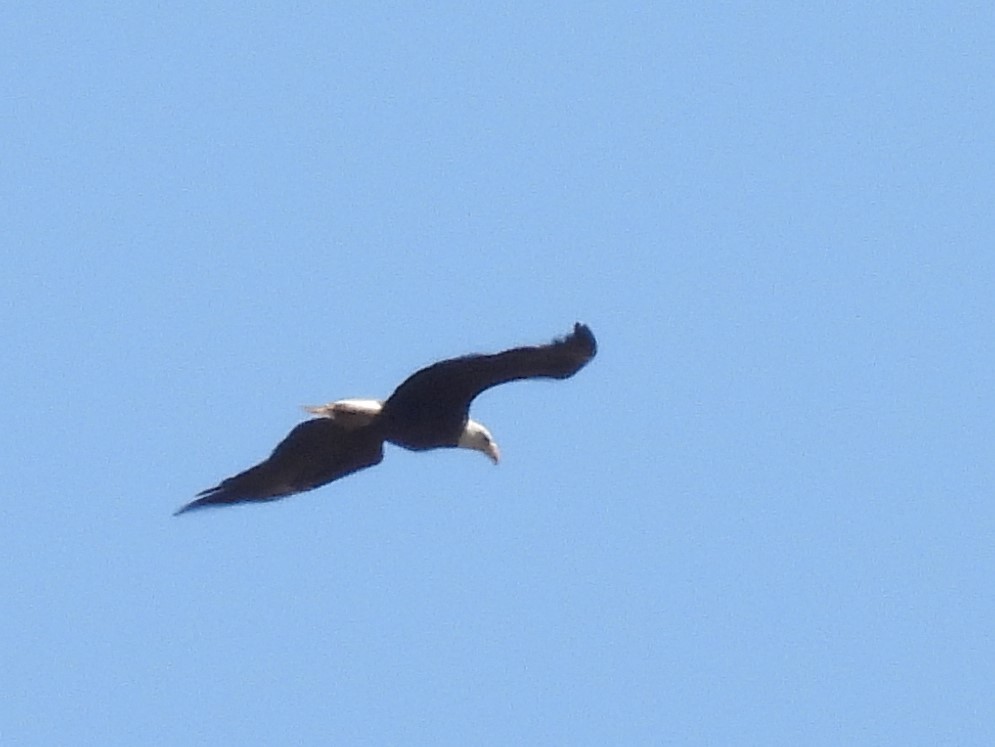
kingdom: Animalia
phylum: Chordata
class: Aves
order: Accipitriformes
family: Accipitridae
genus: Haliaeetus
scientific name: Haliaeetus leucocephalus
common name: Bald eagle
